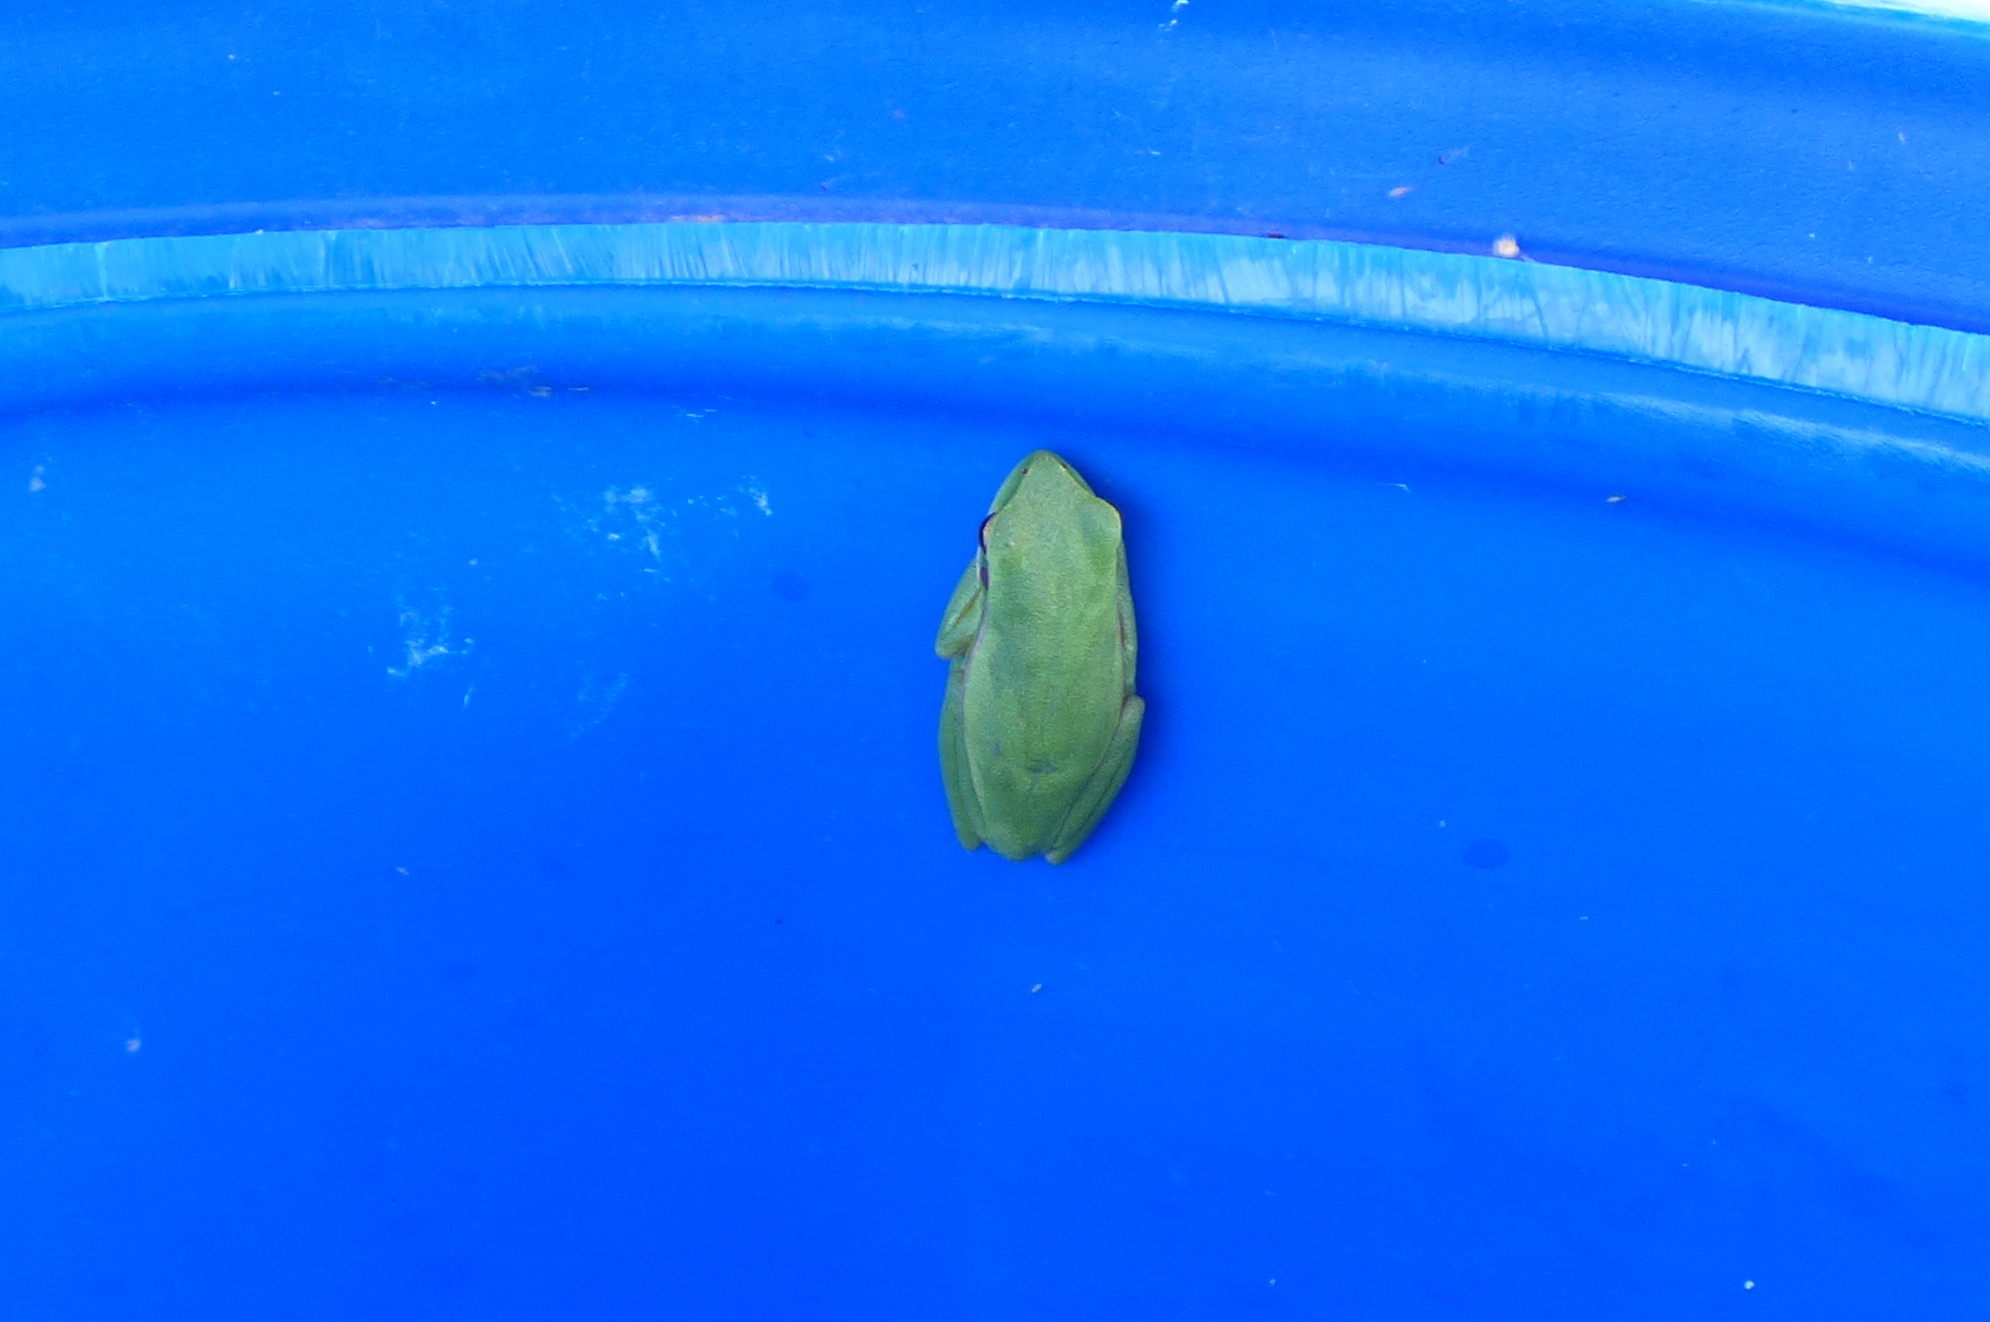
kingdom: Animalia
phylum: Chordata
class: Amphibia
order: Anura
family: Hylidae
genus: Boana
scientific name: Boana pulchella
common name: Montevideo treefrog
